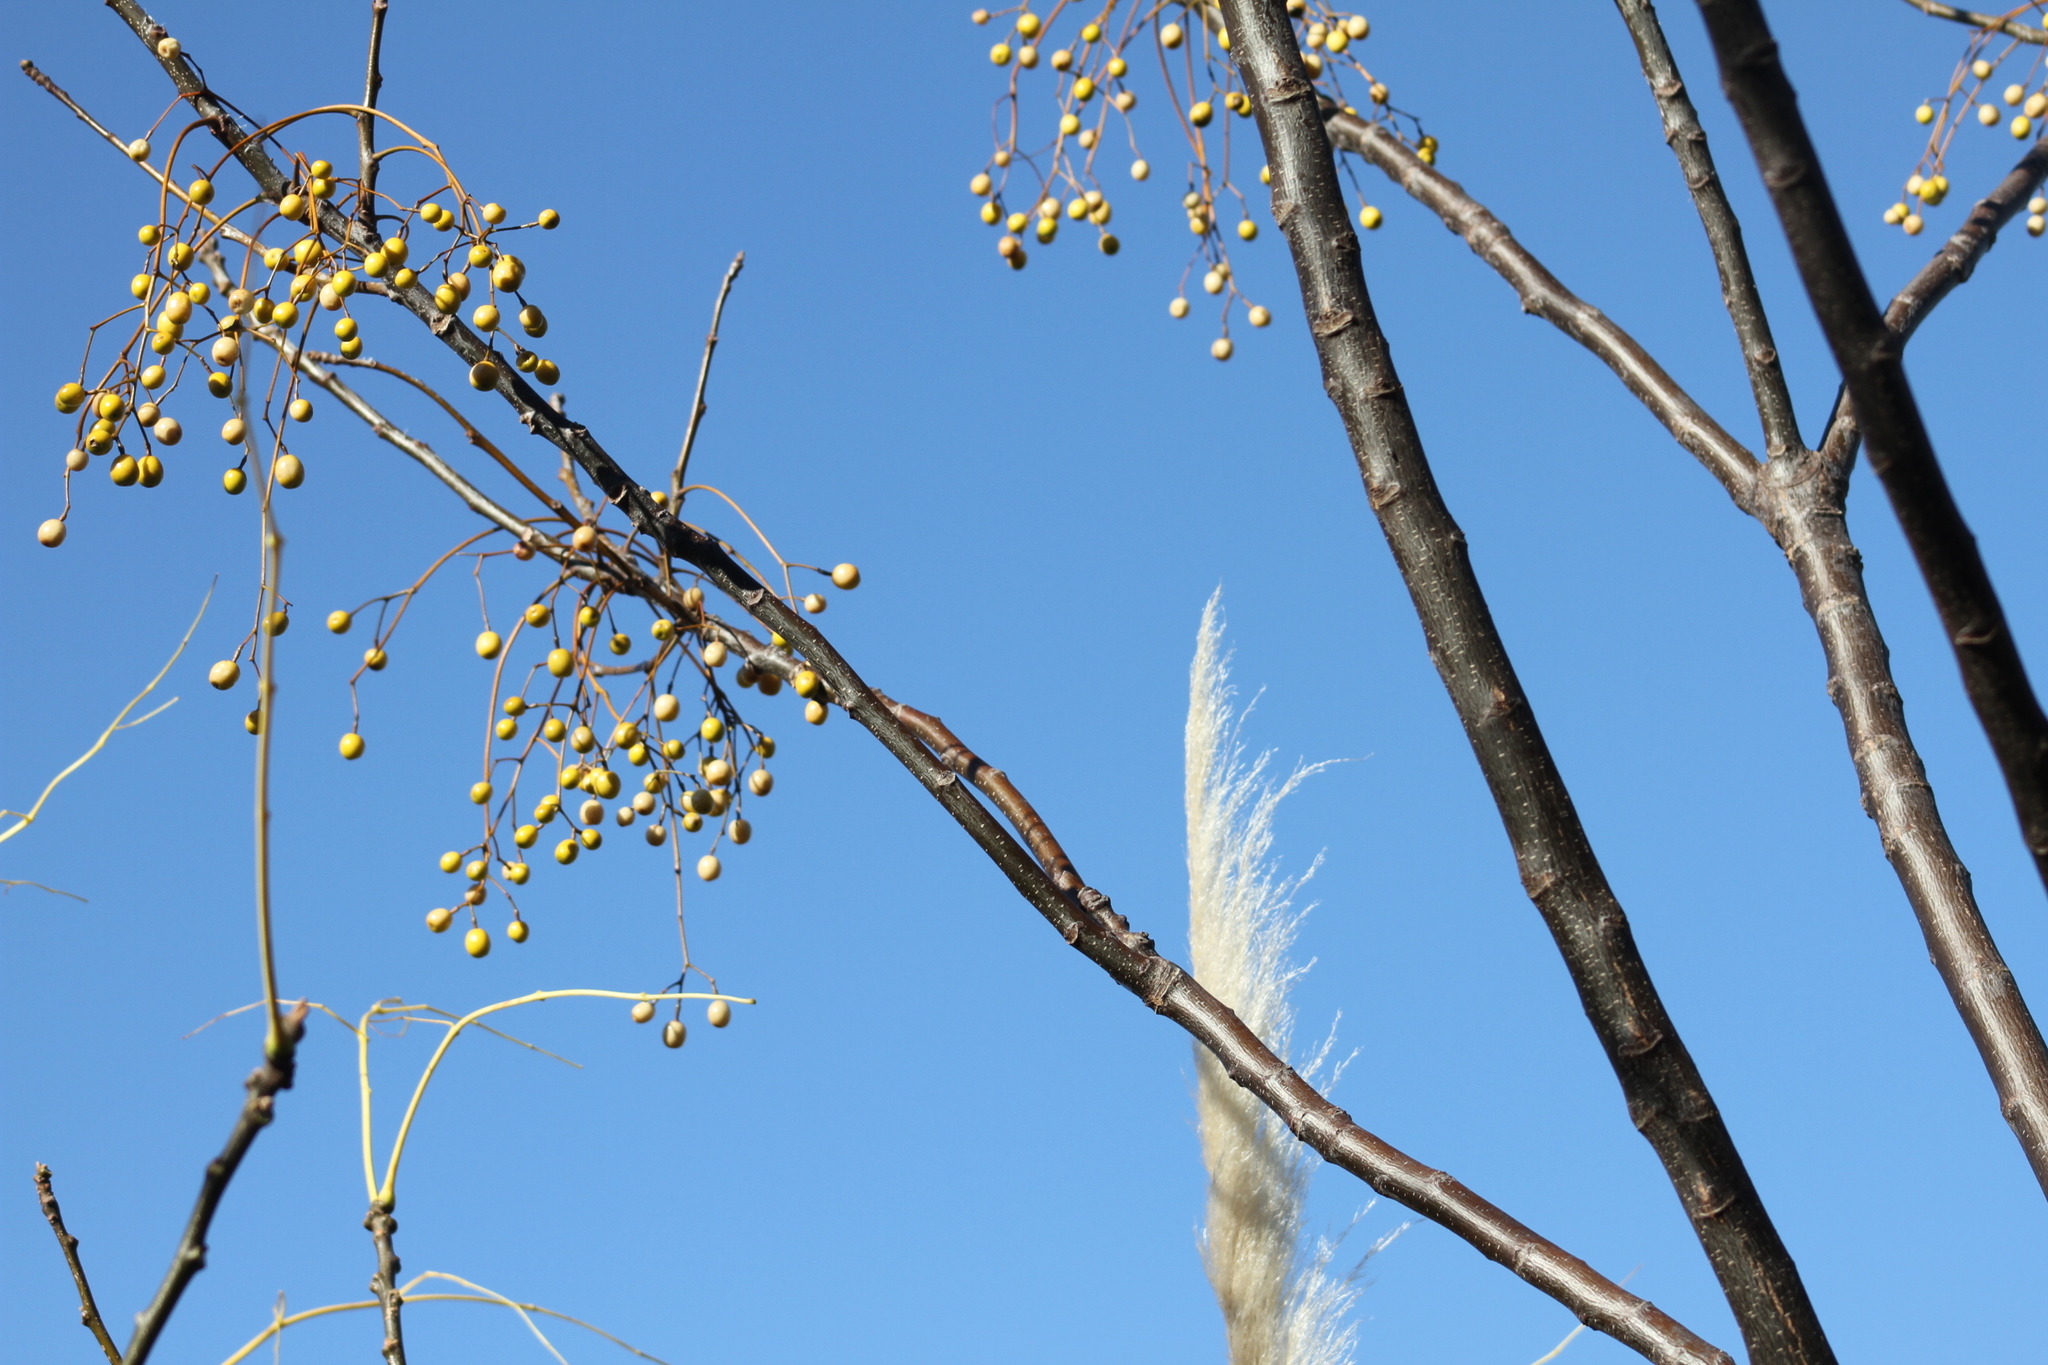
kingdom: Plantae
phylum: Tracheophyta
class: Magnoliopsida
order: Sapindales
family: Meliaceae
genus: Melia
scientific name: Melia azedarach
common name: Chinaberrytree
